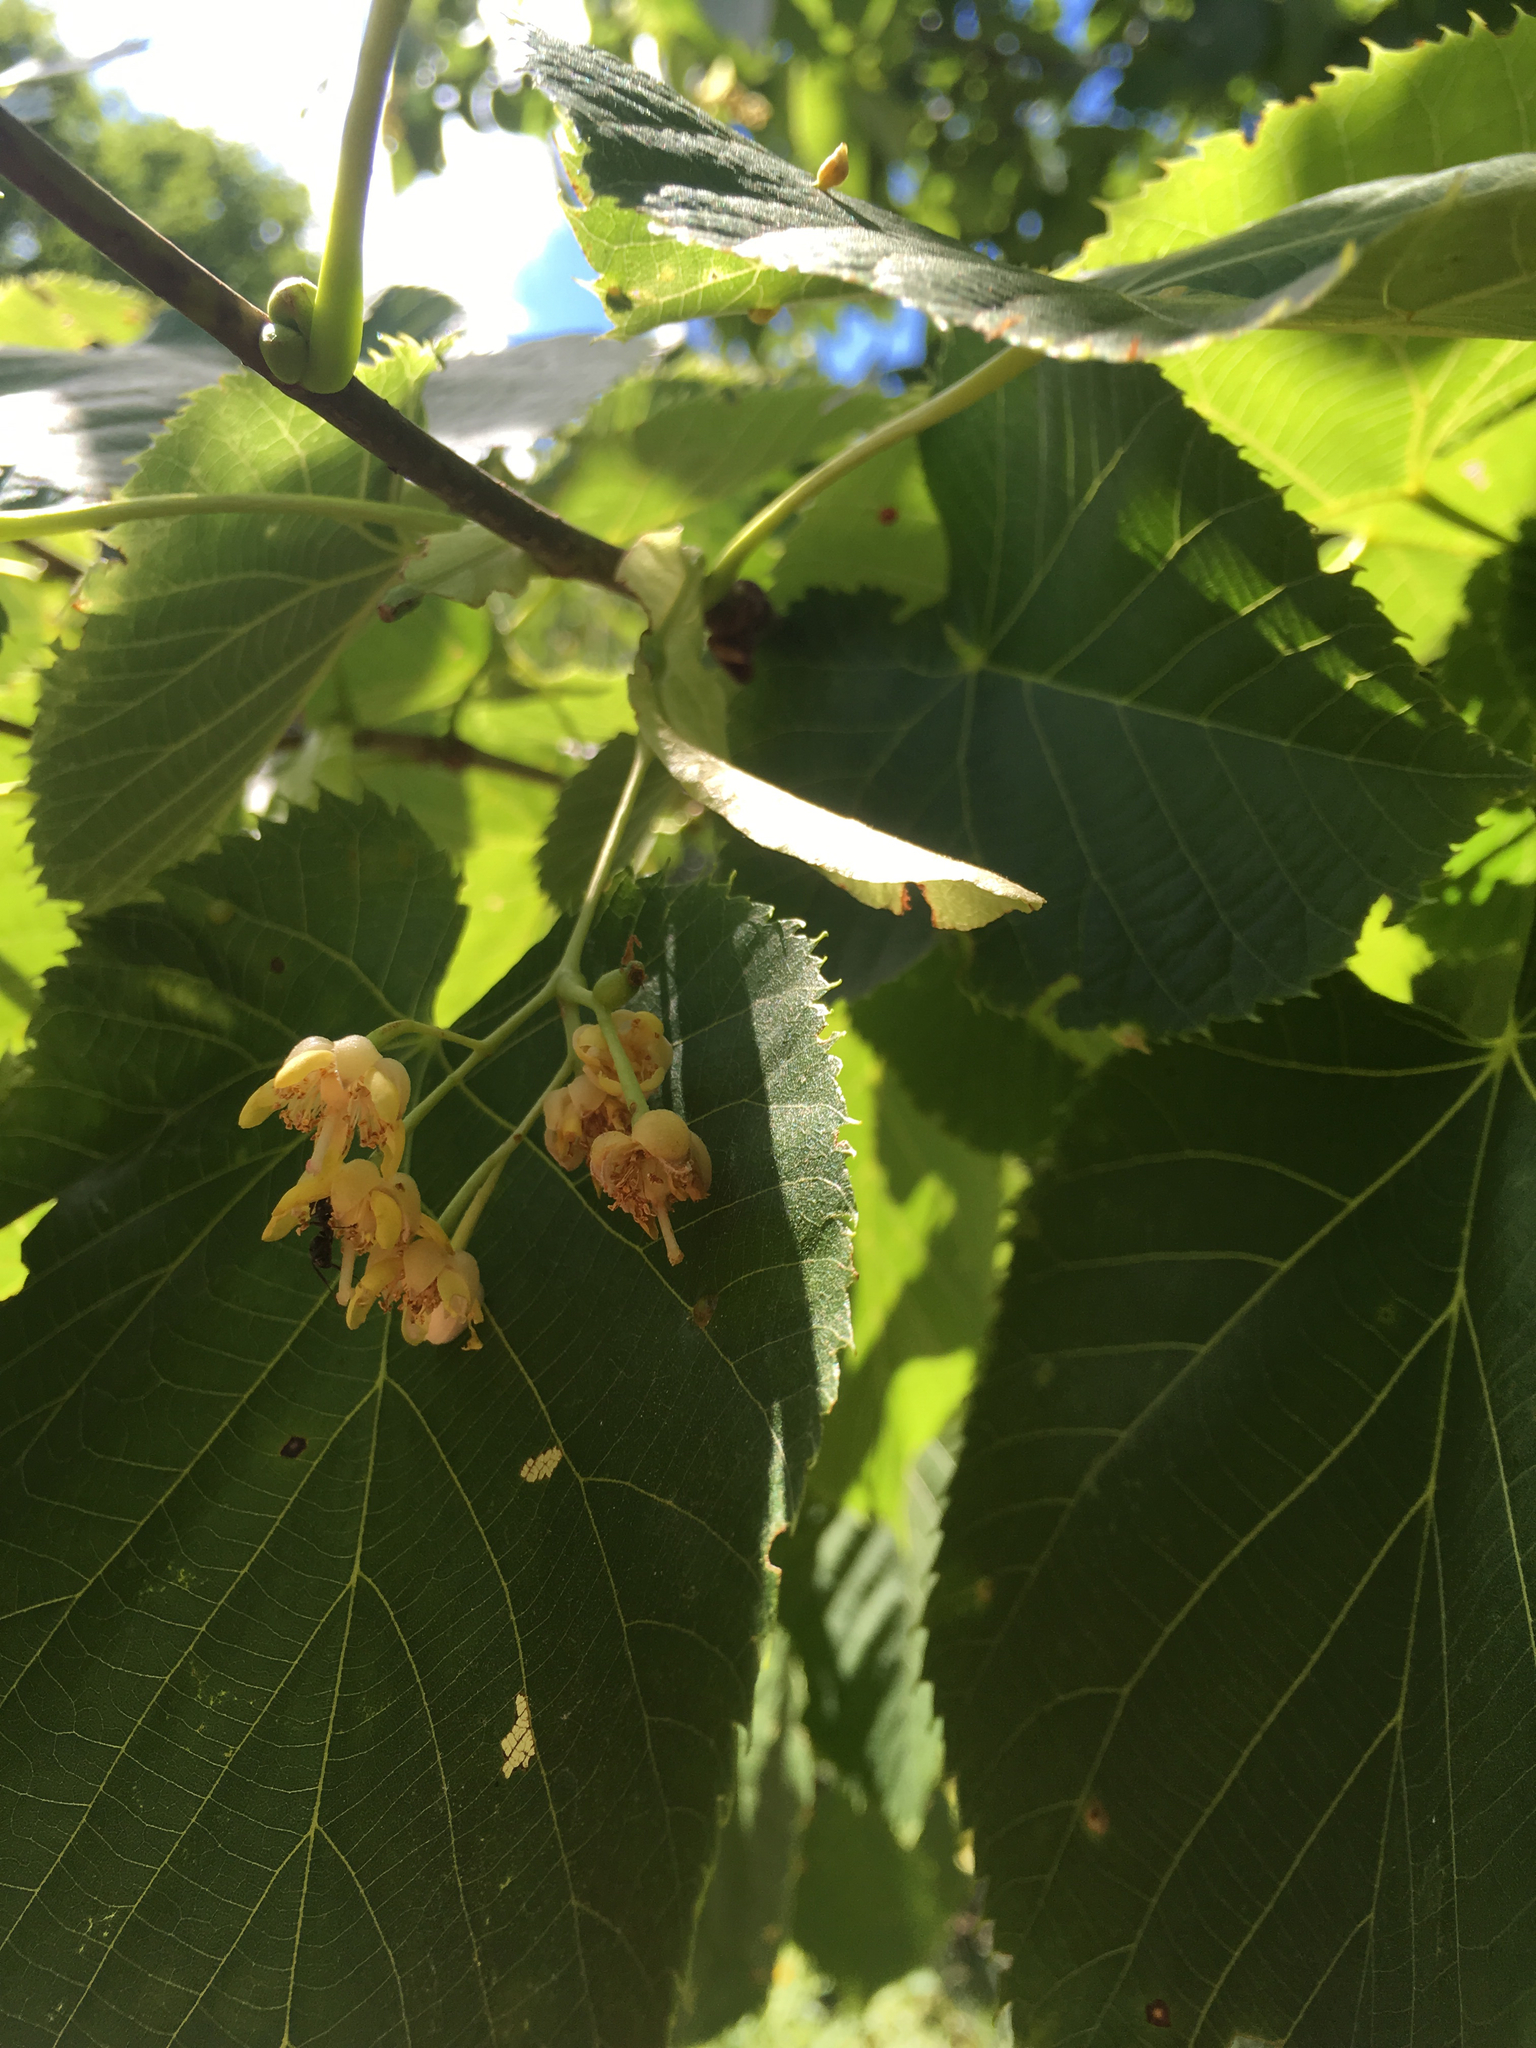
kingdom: Plantae
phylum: Tracheophyta
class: Magnoliopsida
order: Malvales
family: Malvaceae
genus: Tilia
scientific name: Tilia americana
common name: Basswood
